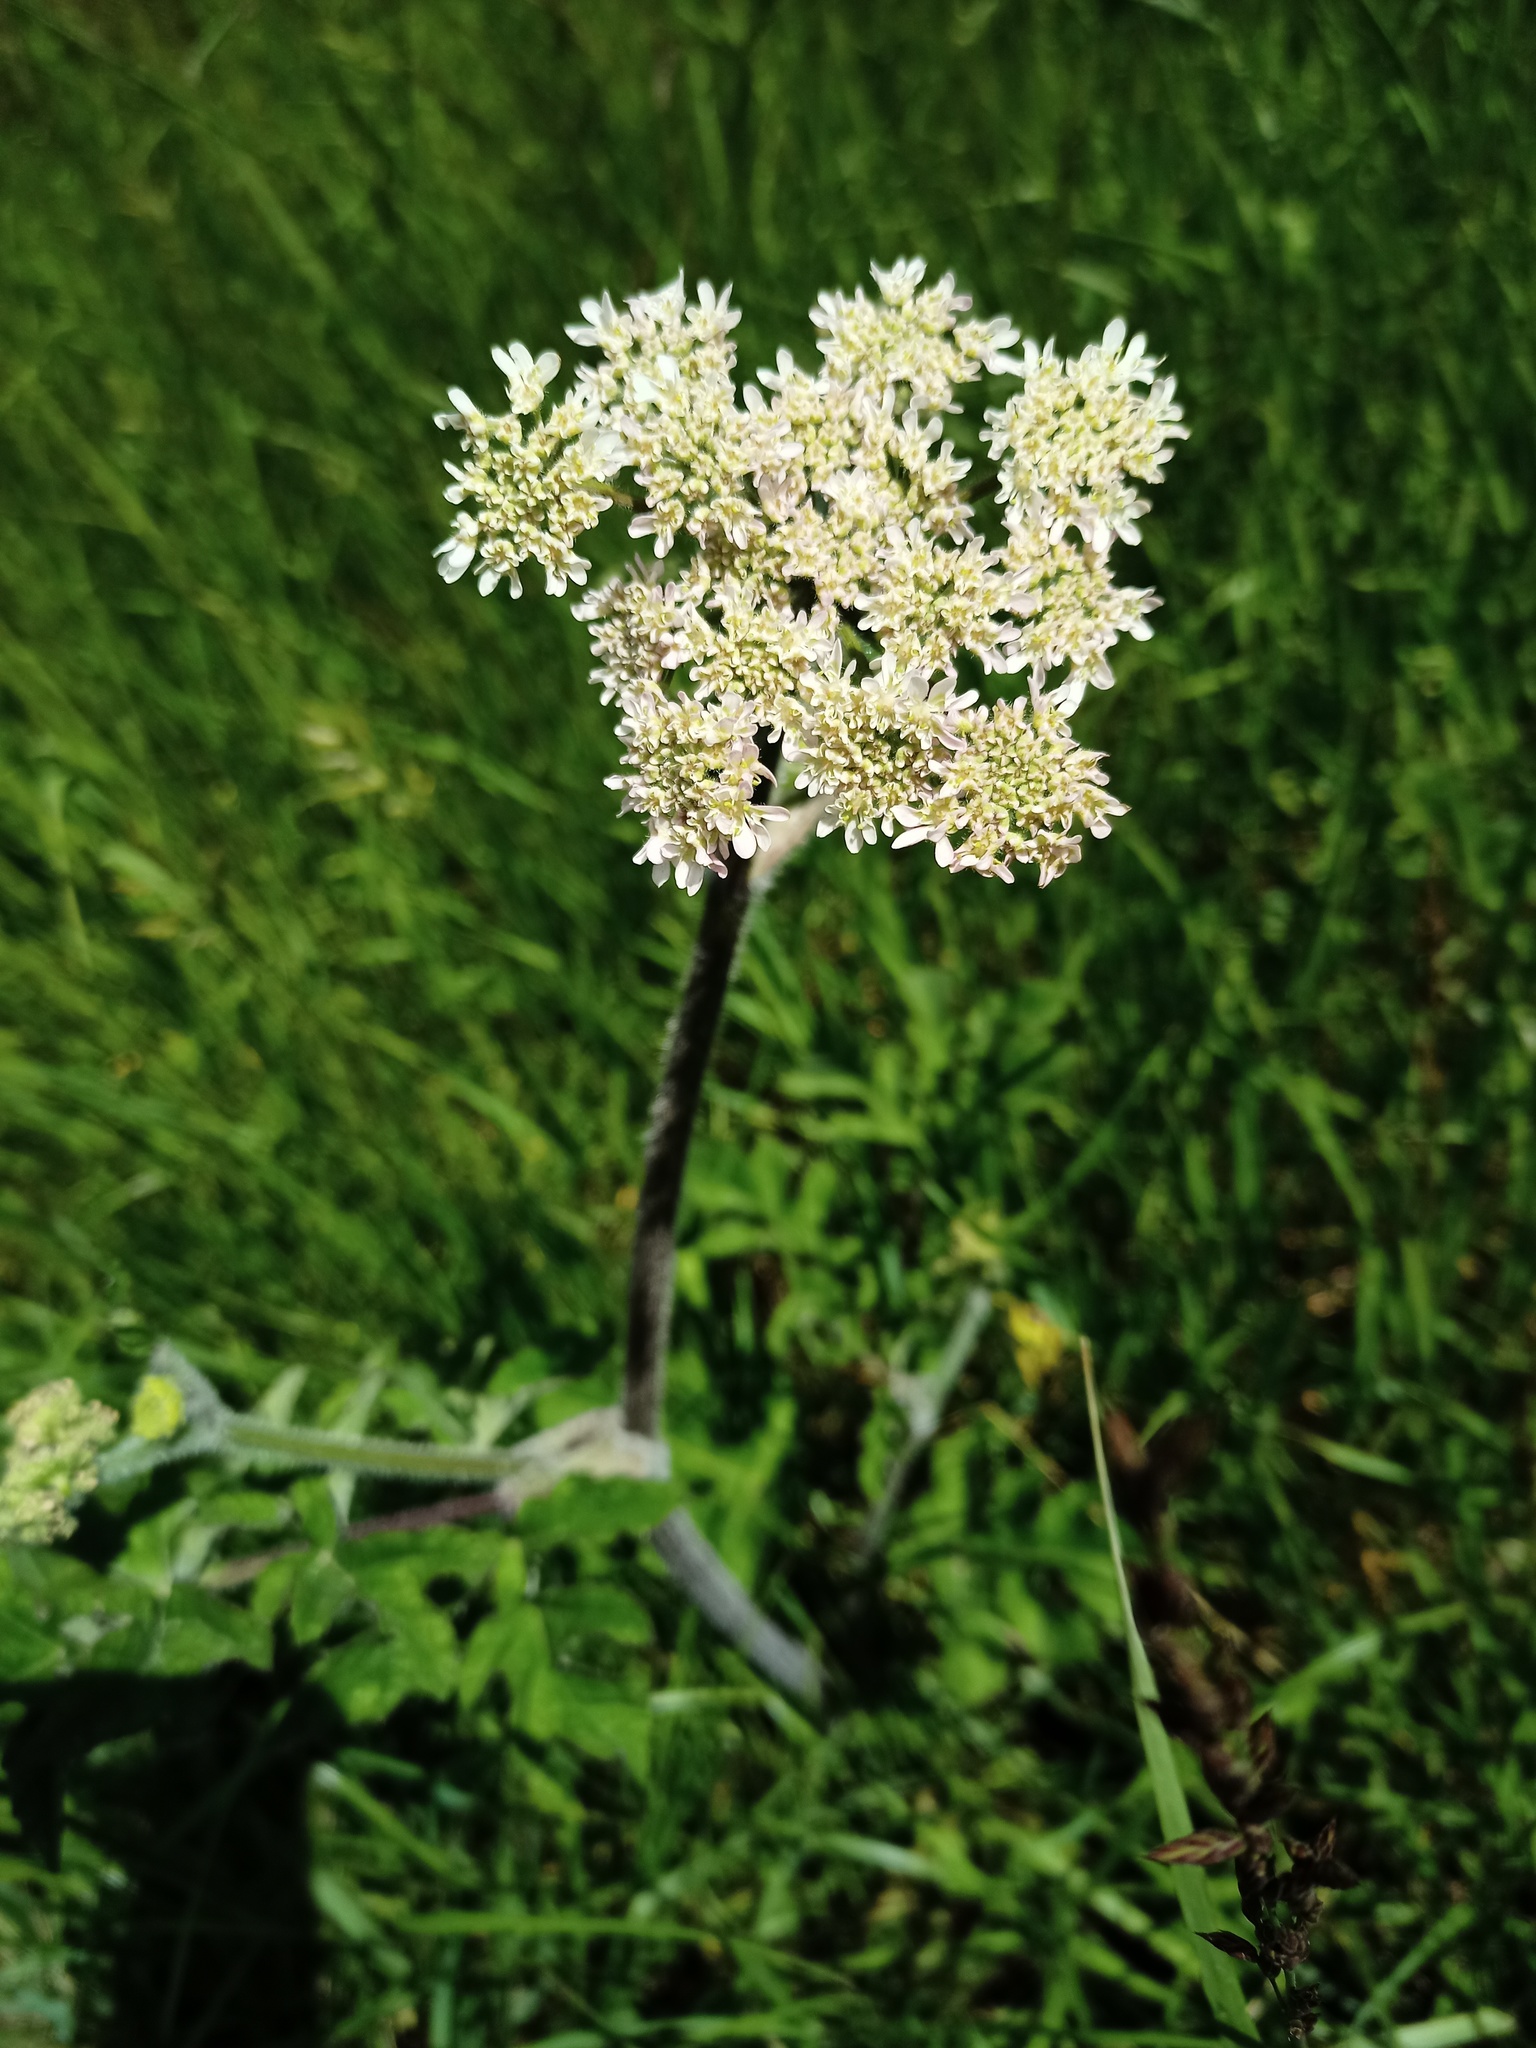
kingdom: Plantae
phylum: Tracheophyta
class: Magnoliopsida
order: Apiales
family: Apiaceae
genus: Heracleum
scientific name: Heracleum sphondylium
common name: Hogweed
